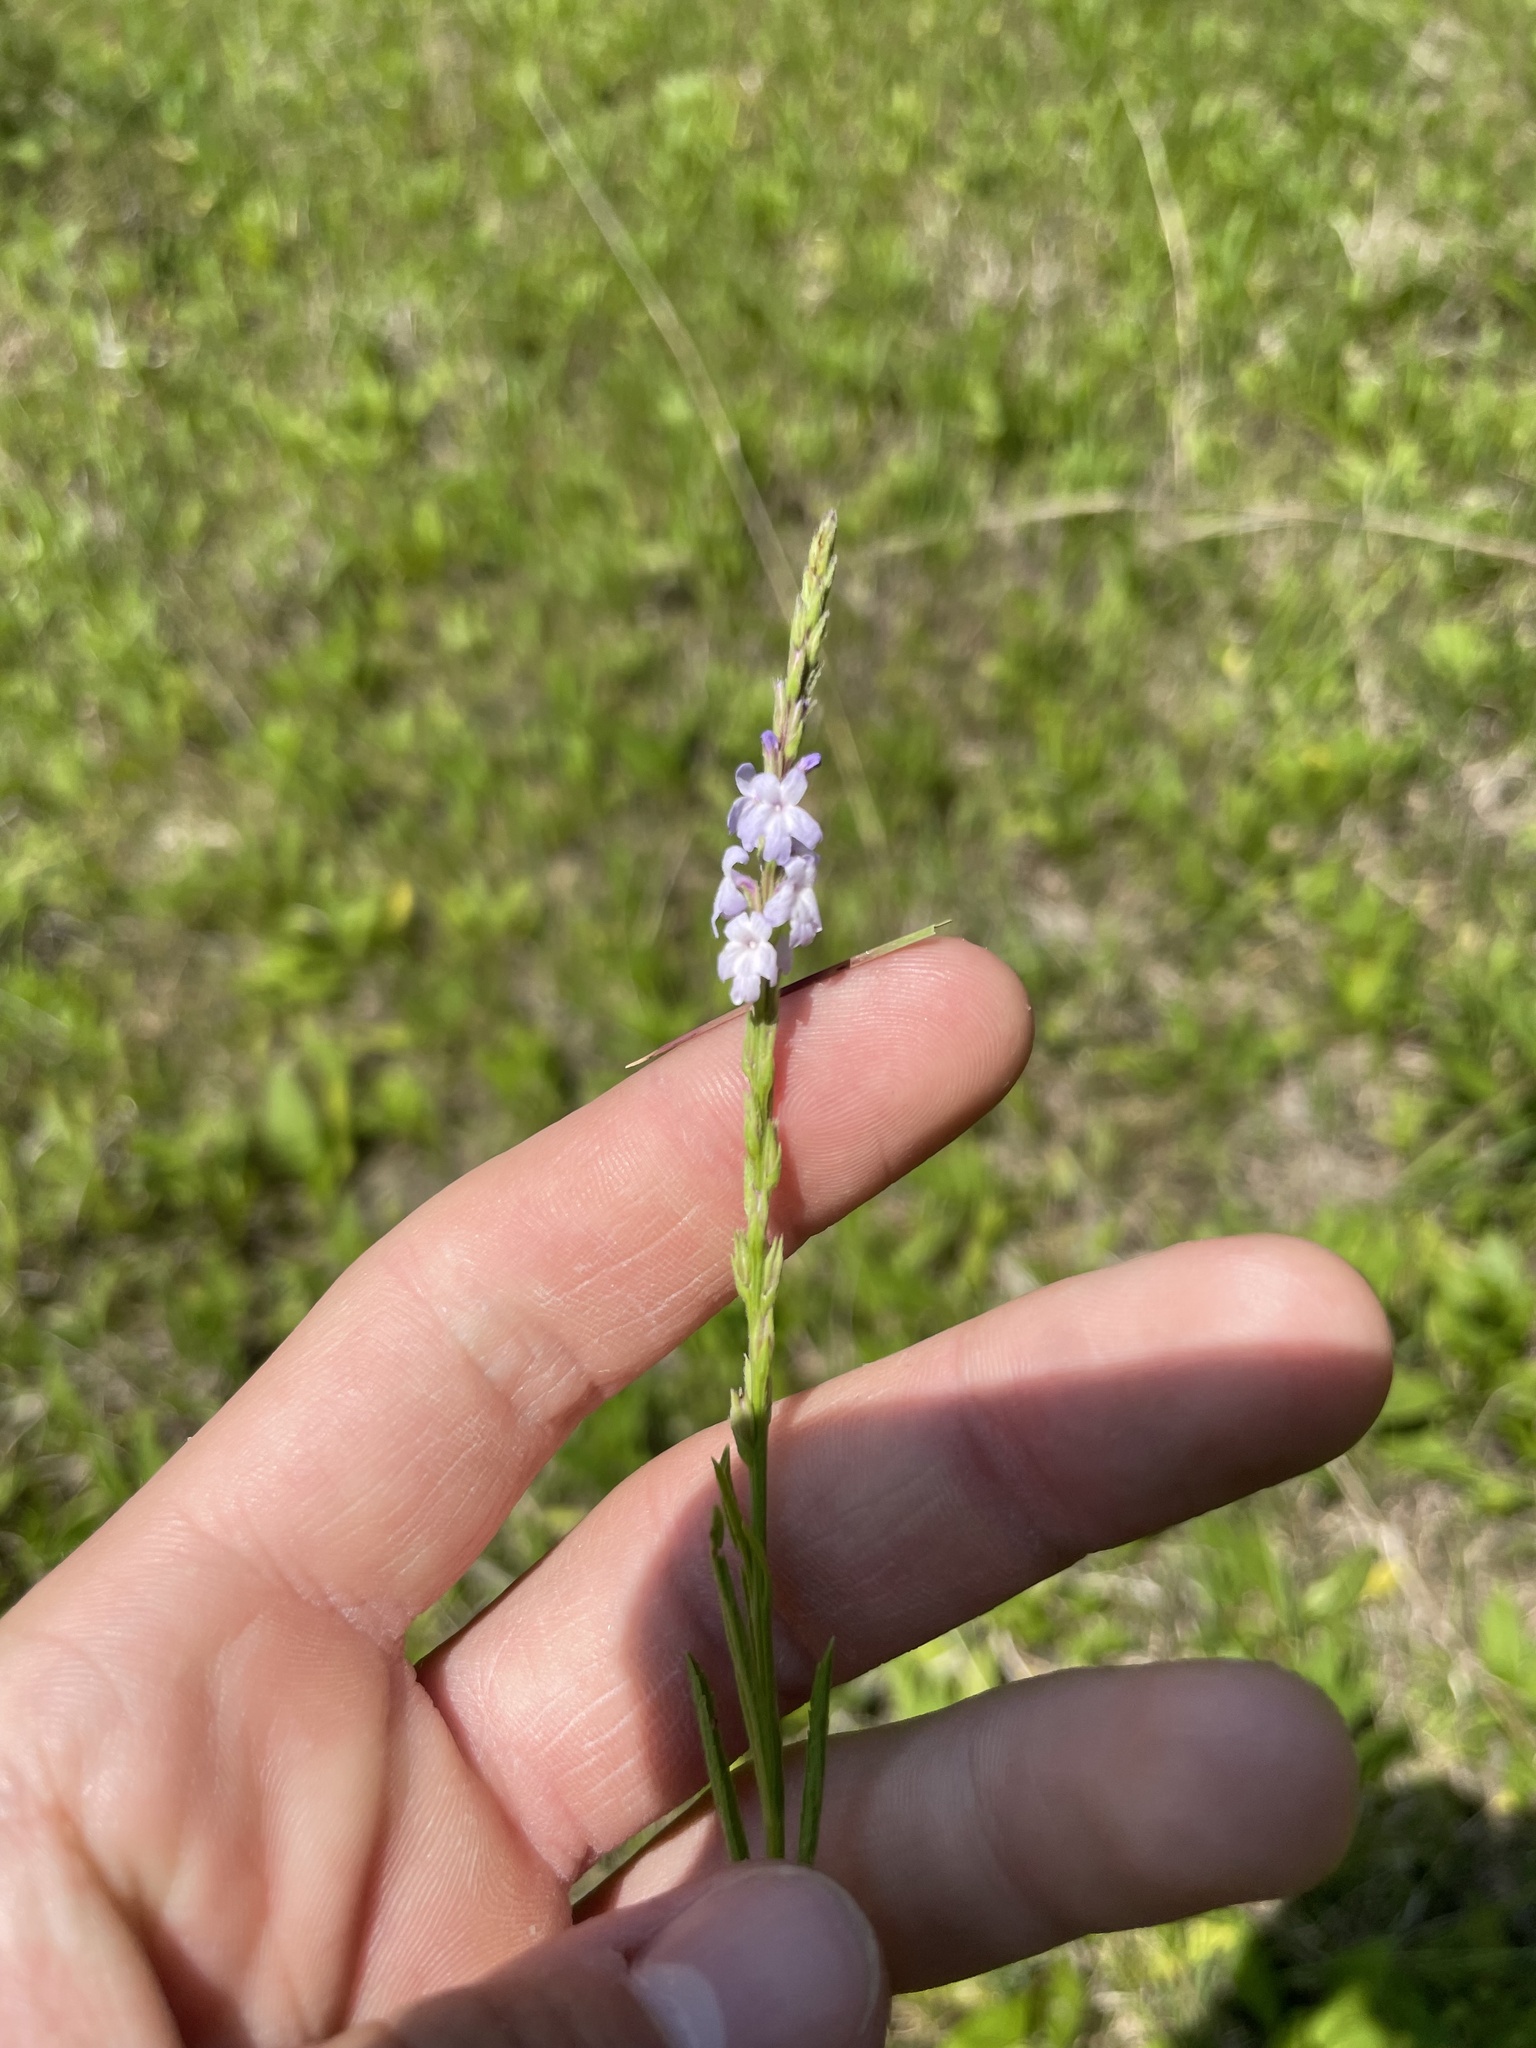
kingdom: Plantae
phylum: Tracheophyta
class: Magnoliopsida
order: Lamiales
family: Verbenaceae
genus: Verbena
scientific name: Verbena simplex
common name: Narrow-leaf vervain
